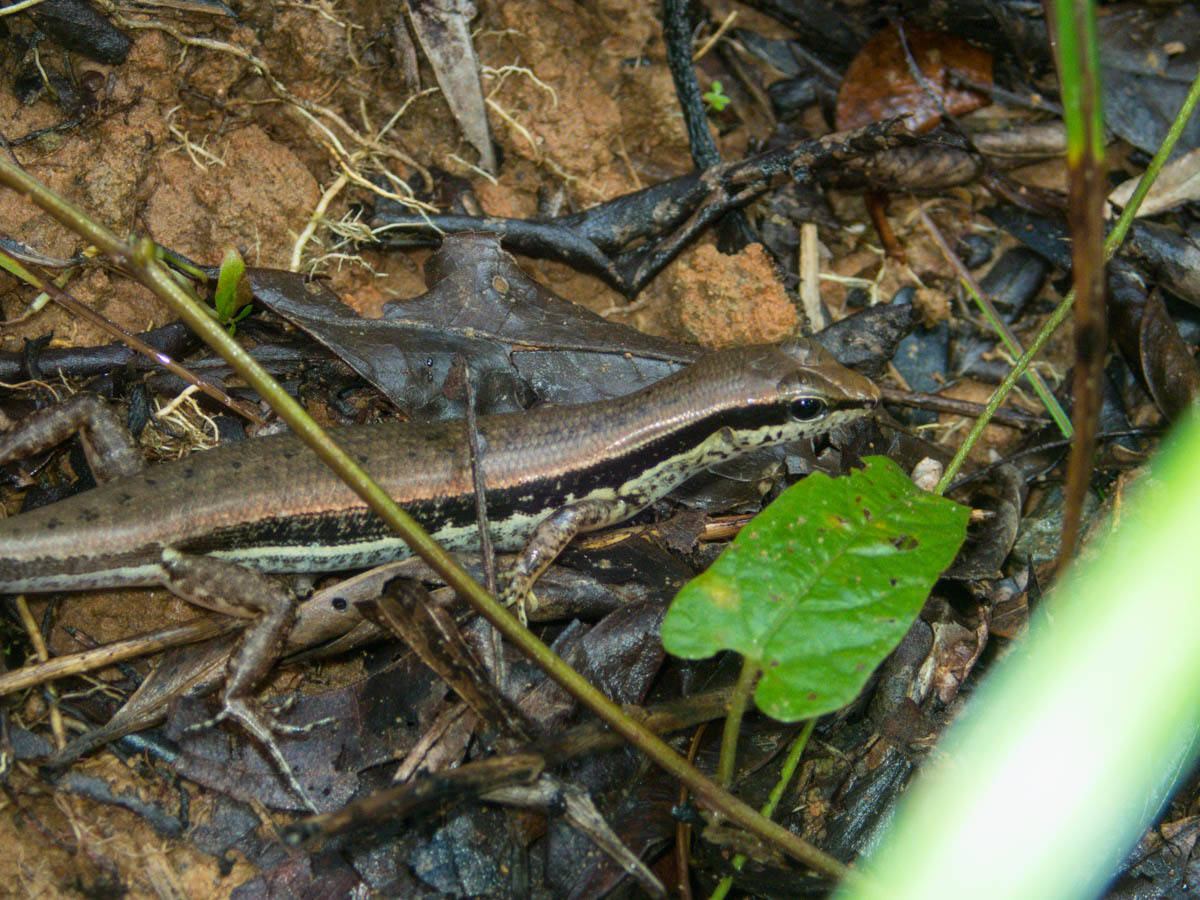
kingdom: Animalia
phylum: Chordata
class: Squamata
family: Scincidae
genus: Sphenomorphus
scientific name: Sphenomorphus maculatus
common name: Maculated forest skink
